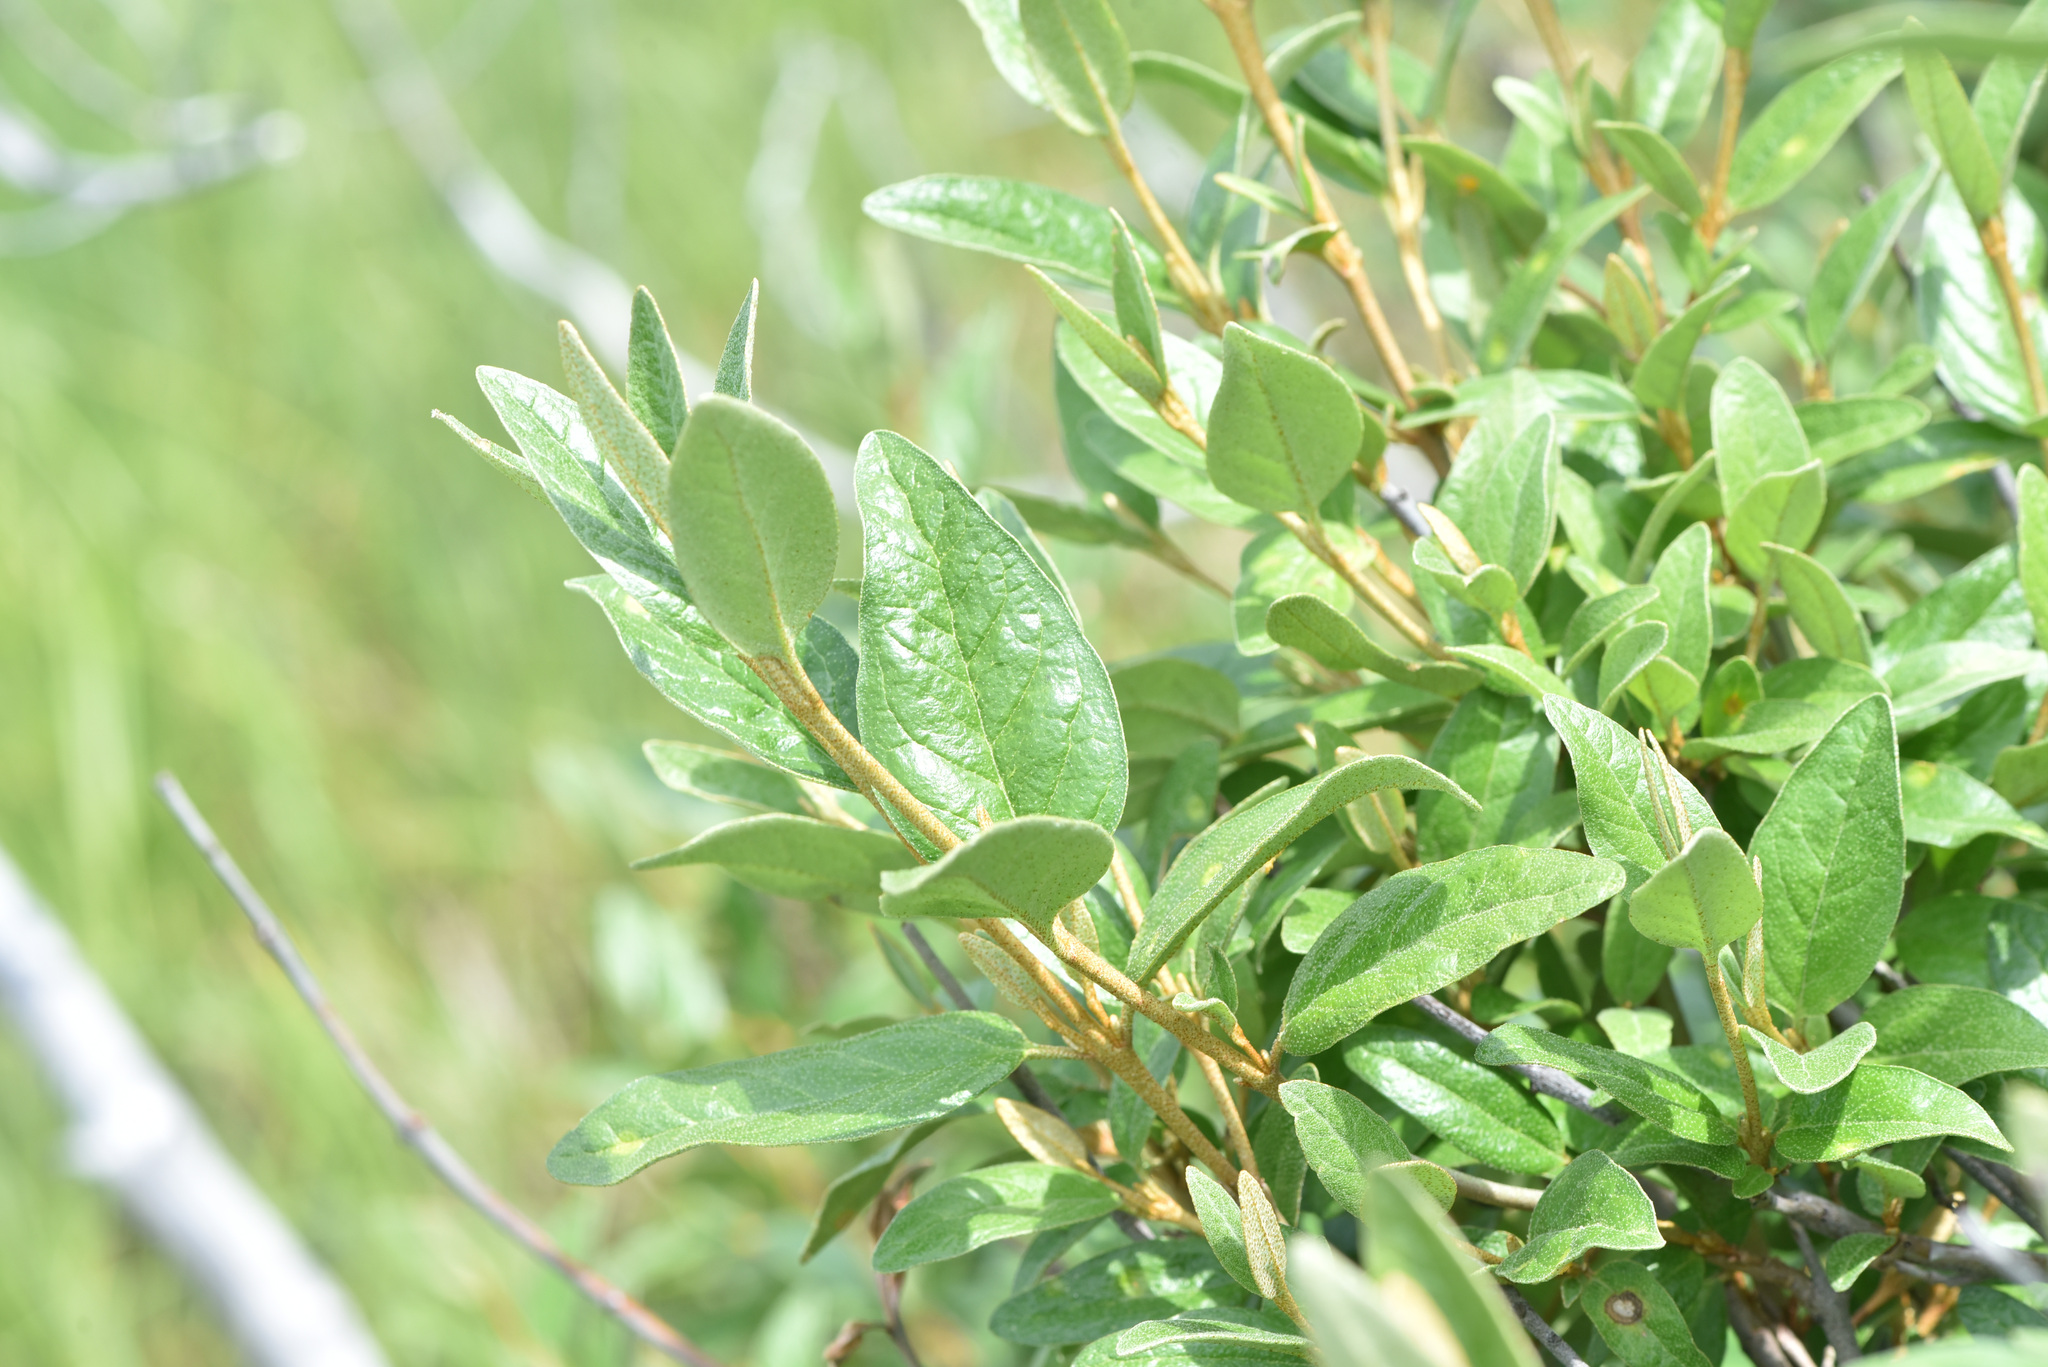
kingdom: Plantae
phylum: Tracheophyta
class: Magnoliopsida
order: Rosales
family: Elaeagnaceae
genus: Shepherdia
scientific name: Shepherdia canadensis
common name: Soapberry
